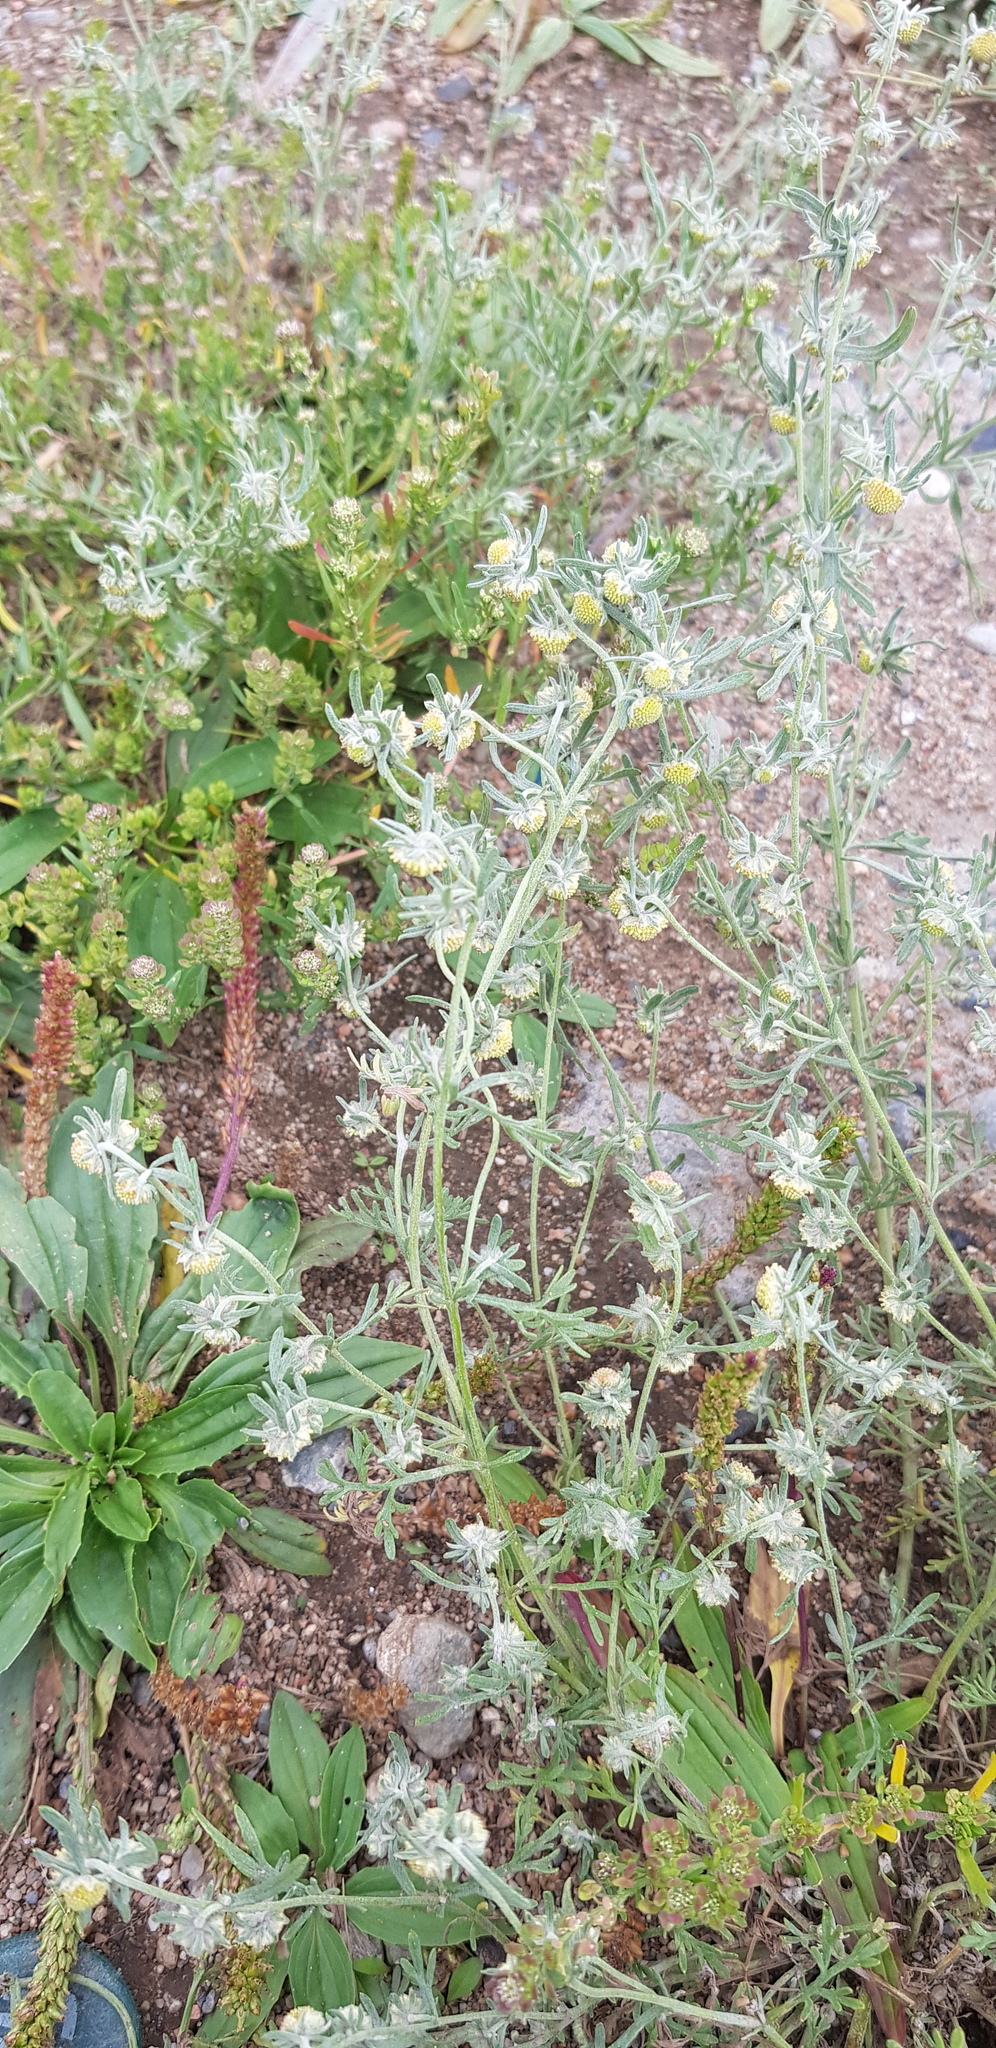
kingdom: Plantae
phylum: Tracheophyta
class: Magnoliopsida
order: Asterales
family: Asteraceae
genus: Artemisia
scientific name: Artemisia sieversiana
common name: Sieversian wormwood
